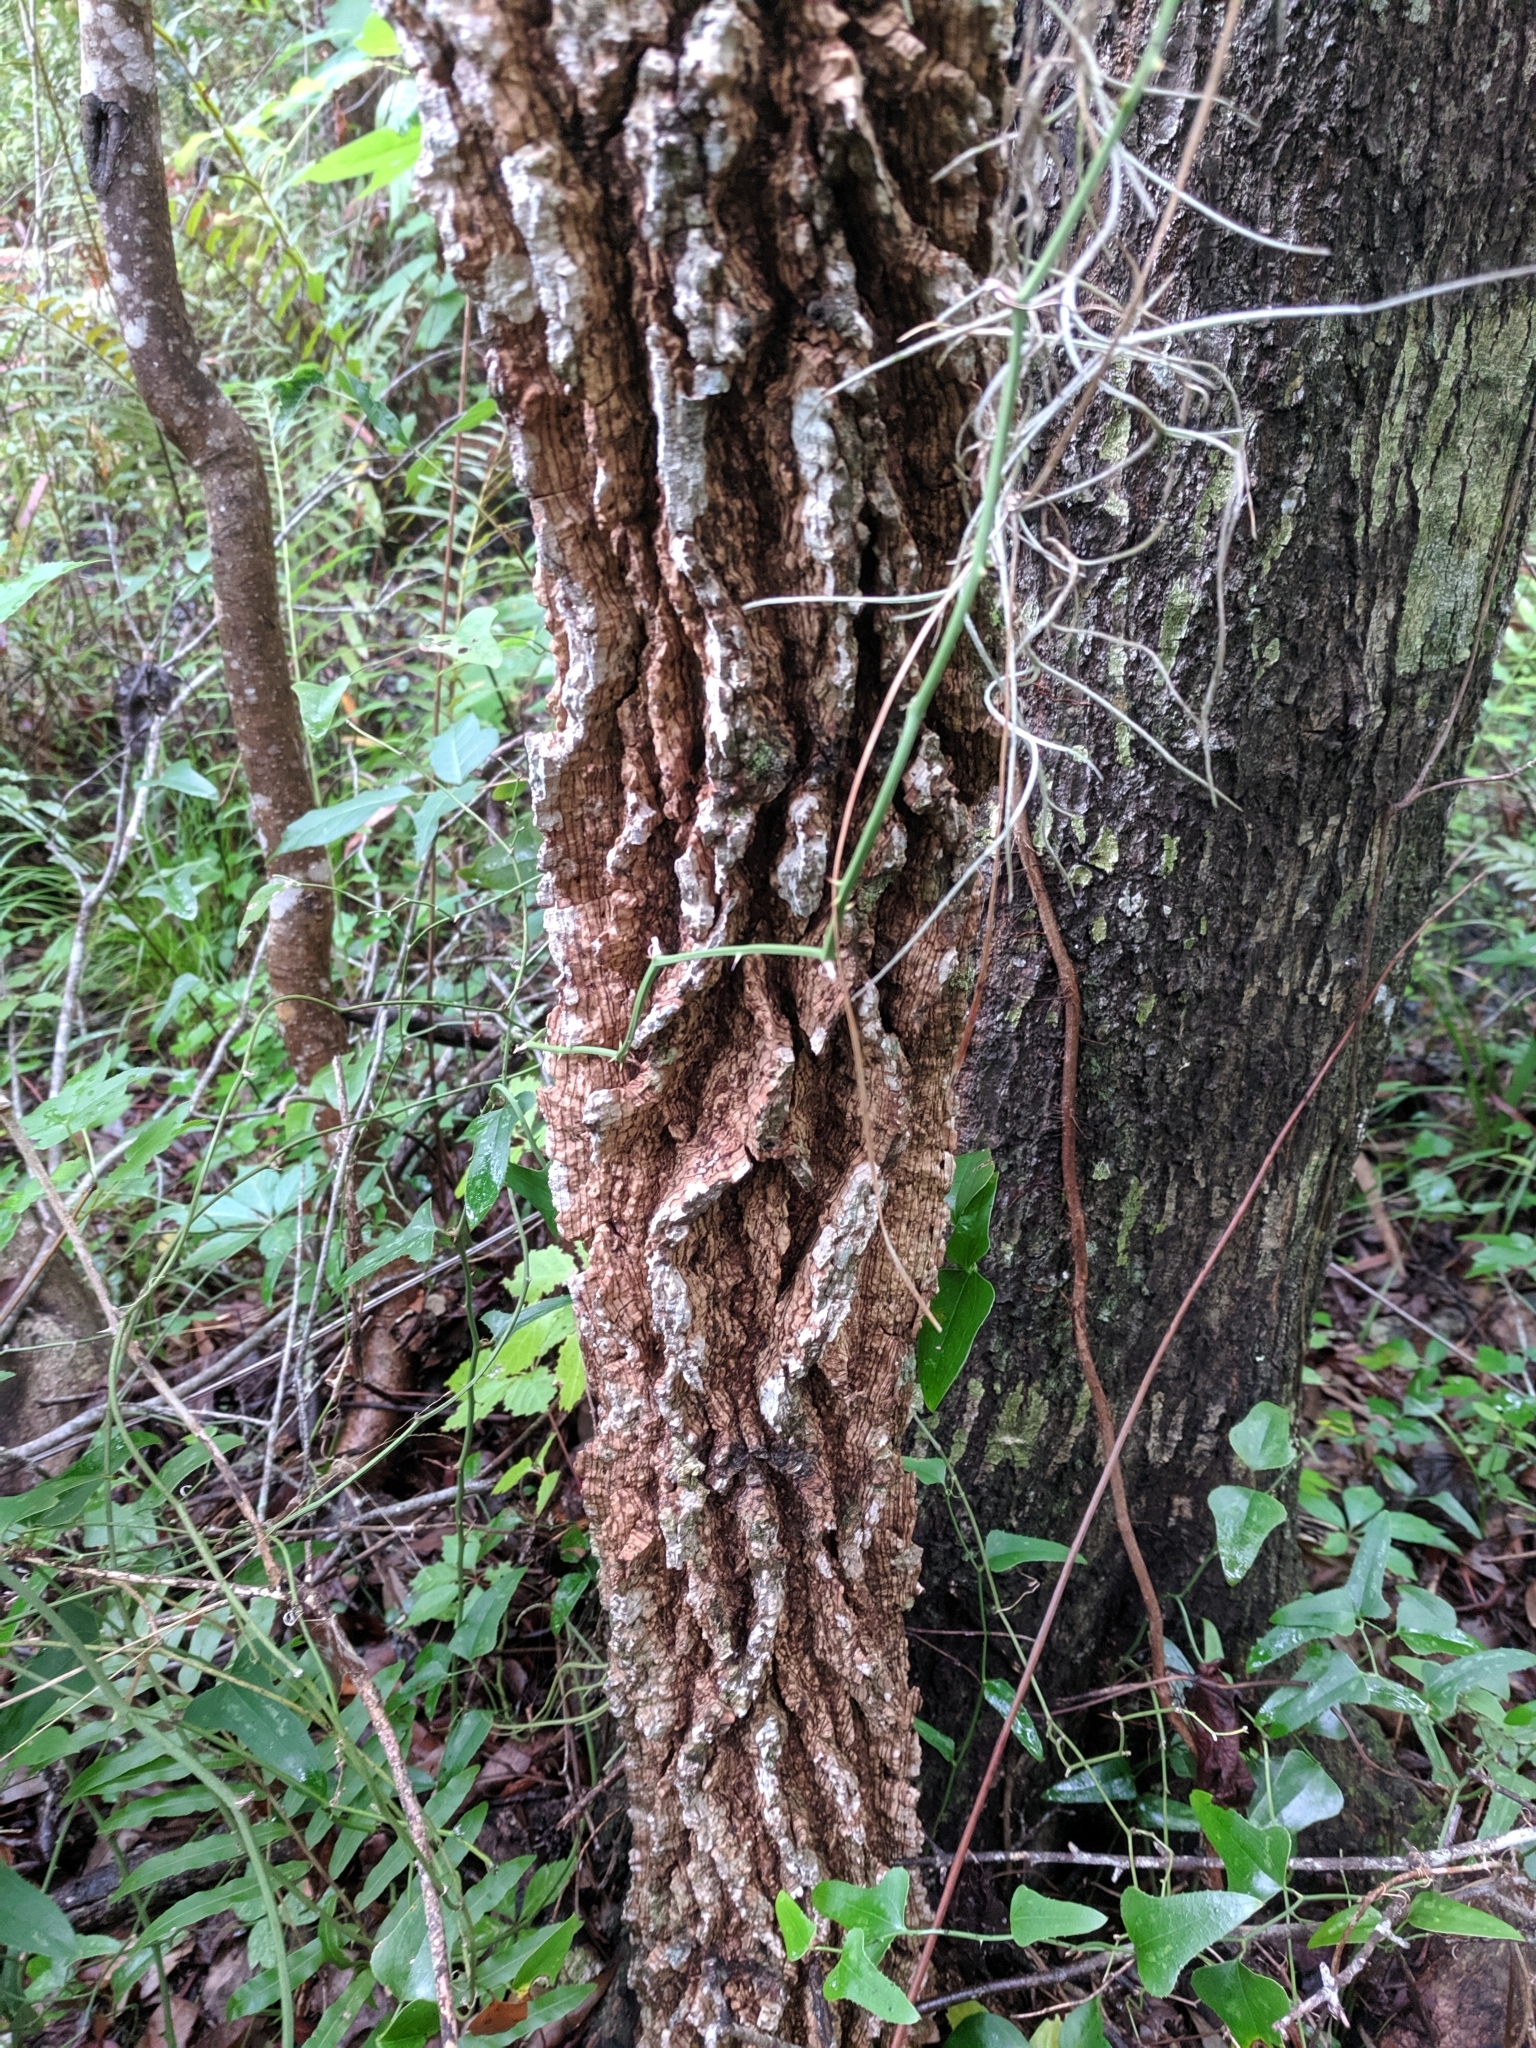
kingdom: Plantae
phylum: Tracheophyta
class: Magnoliopsida
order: Saxifragales
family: Altingiaceae
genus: Liquidambar
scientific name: Liquidambar styraciflua
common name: Sweet gum
